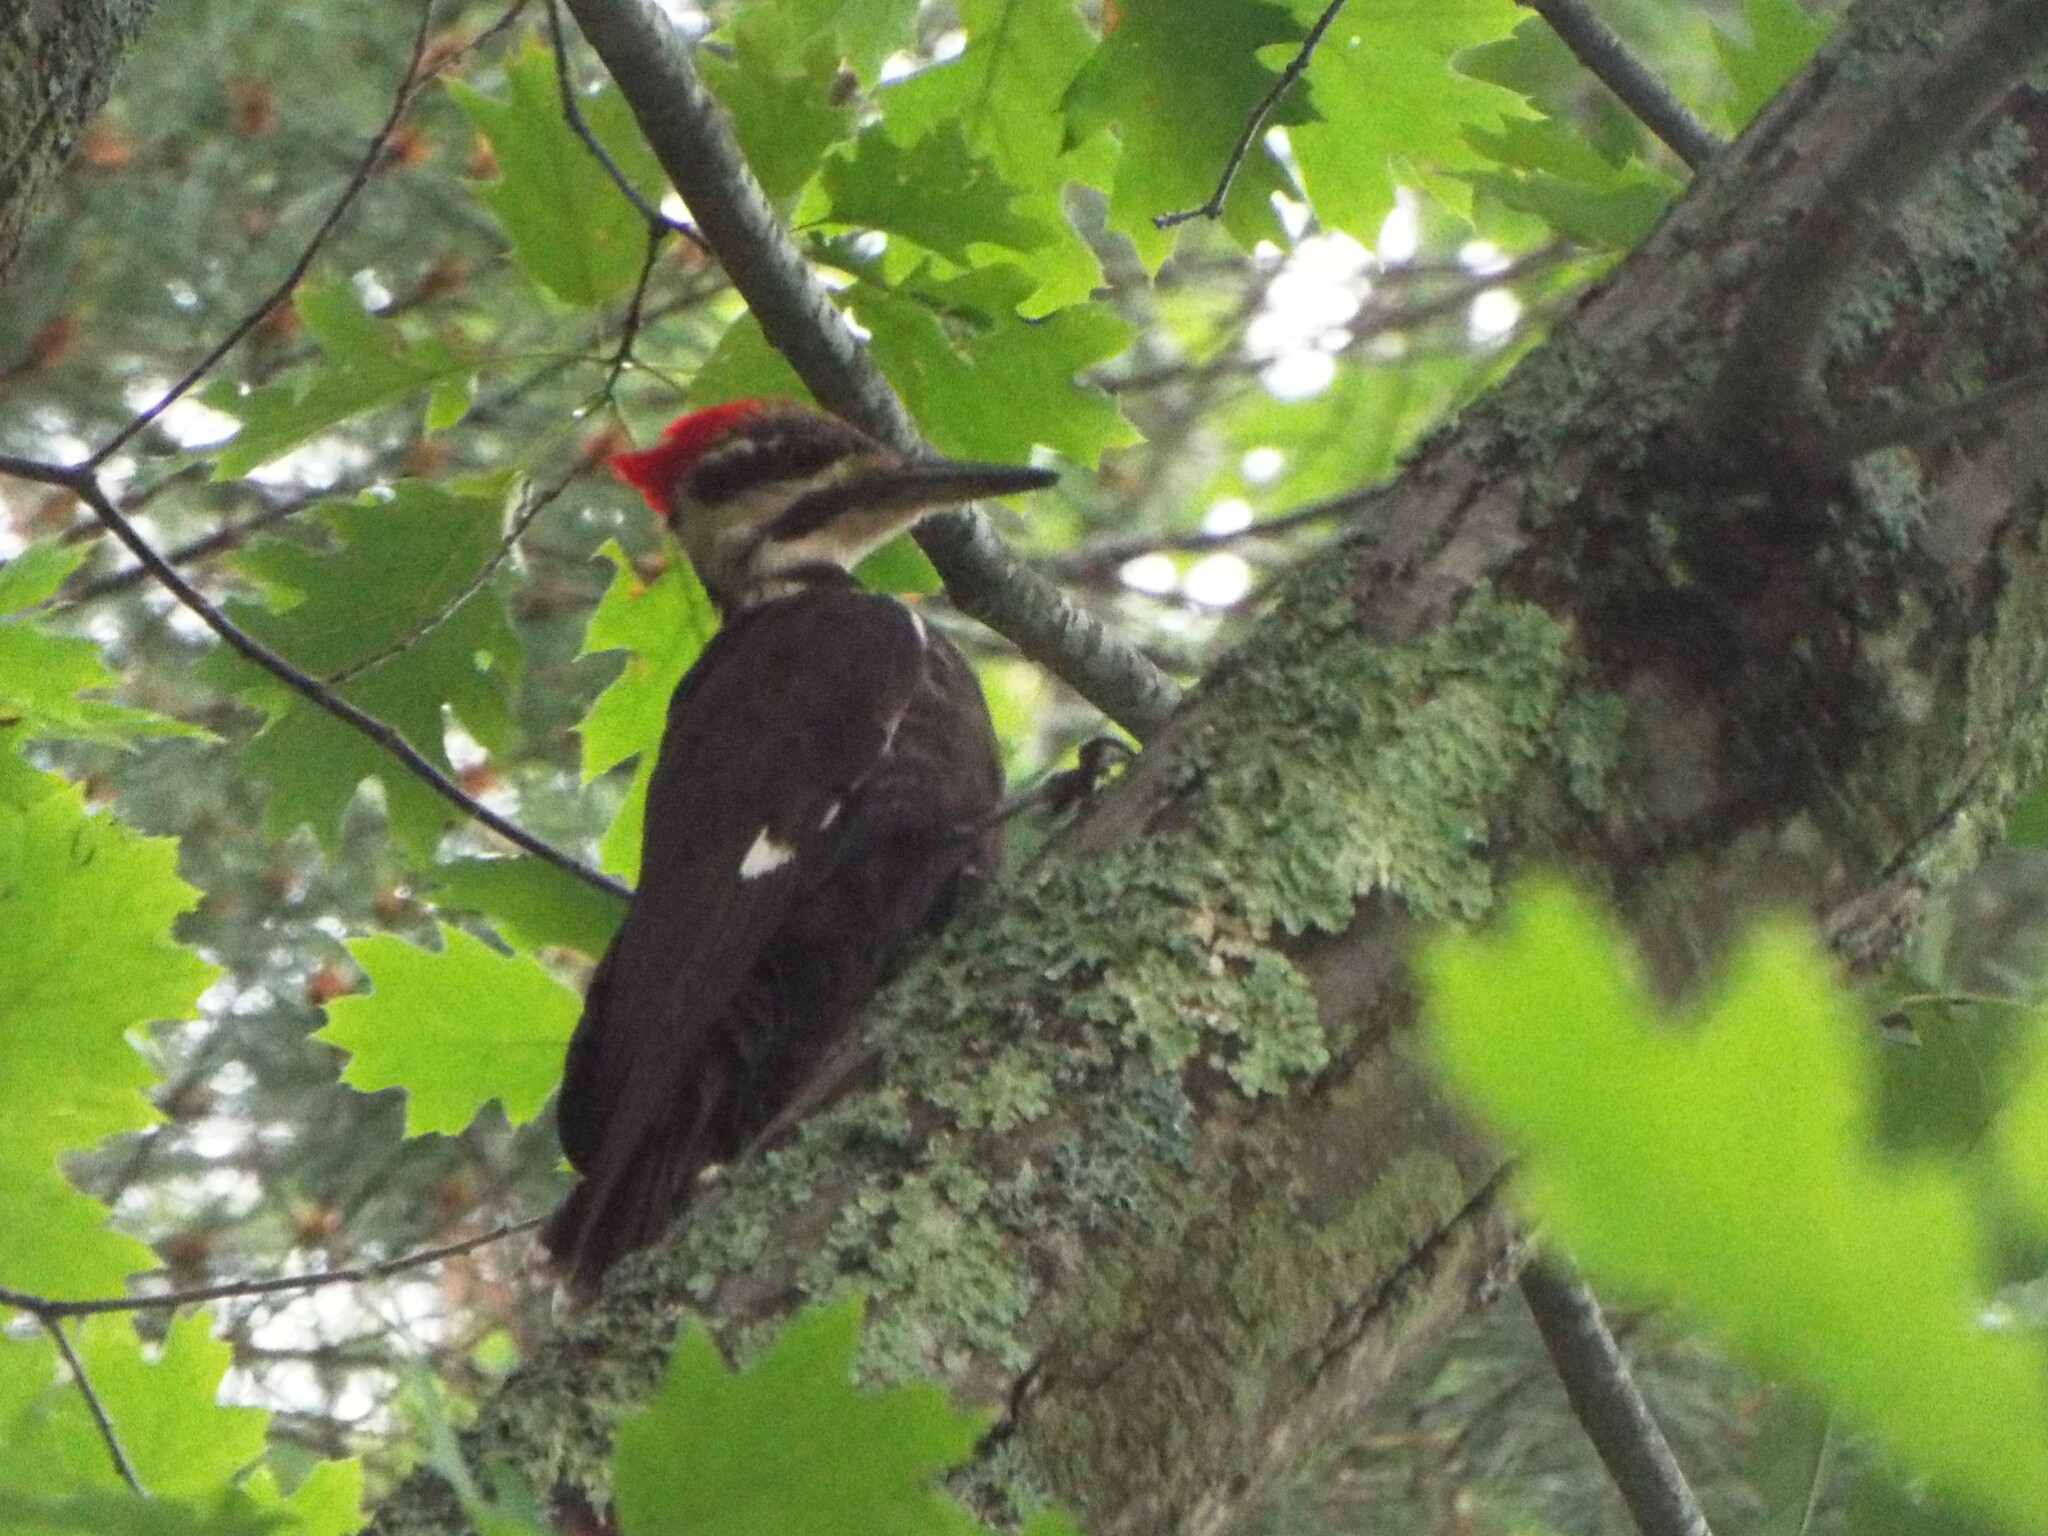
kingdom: Animalia
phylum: Chordata
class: Aves
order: Piciformes
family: Picidae
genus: Dryocopus
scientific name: Dryocopus pileatus
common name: Pileated woodpecker
